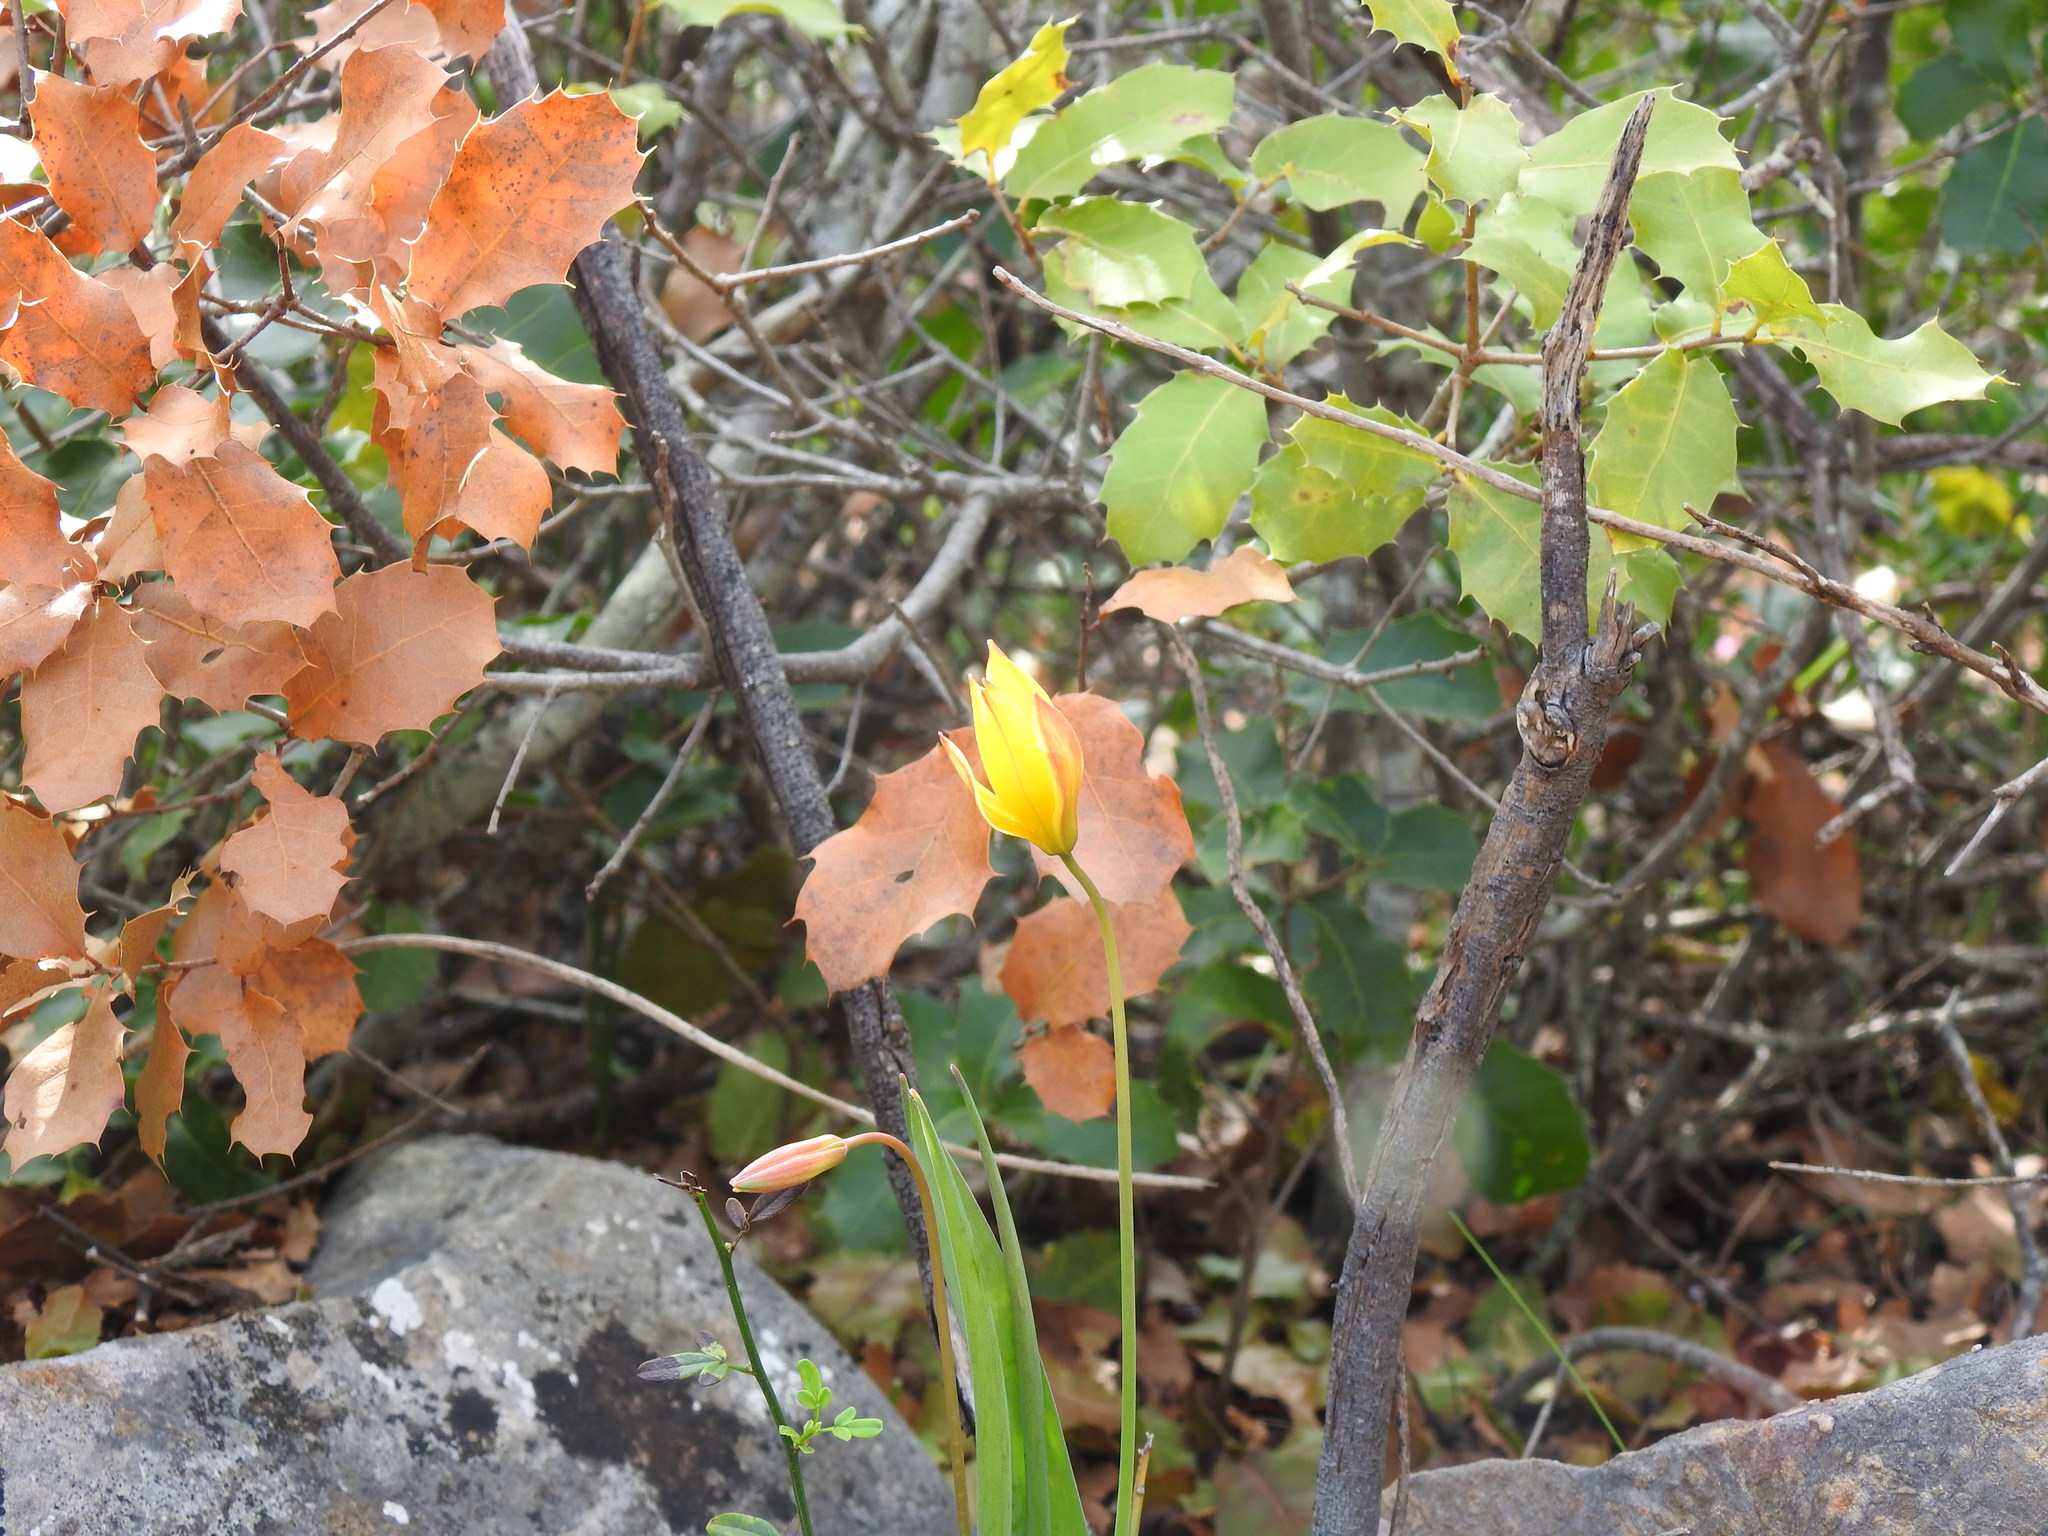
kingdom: Plantae
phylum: Tracheophyta
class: Liliopsida
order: Liliales
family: Liliaceae
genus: Tulipa
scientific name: Tulipa sylvestris
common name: Wild tulip
